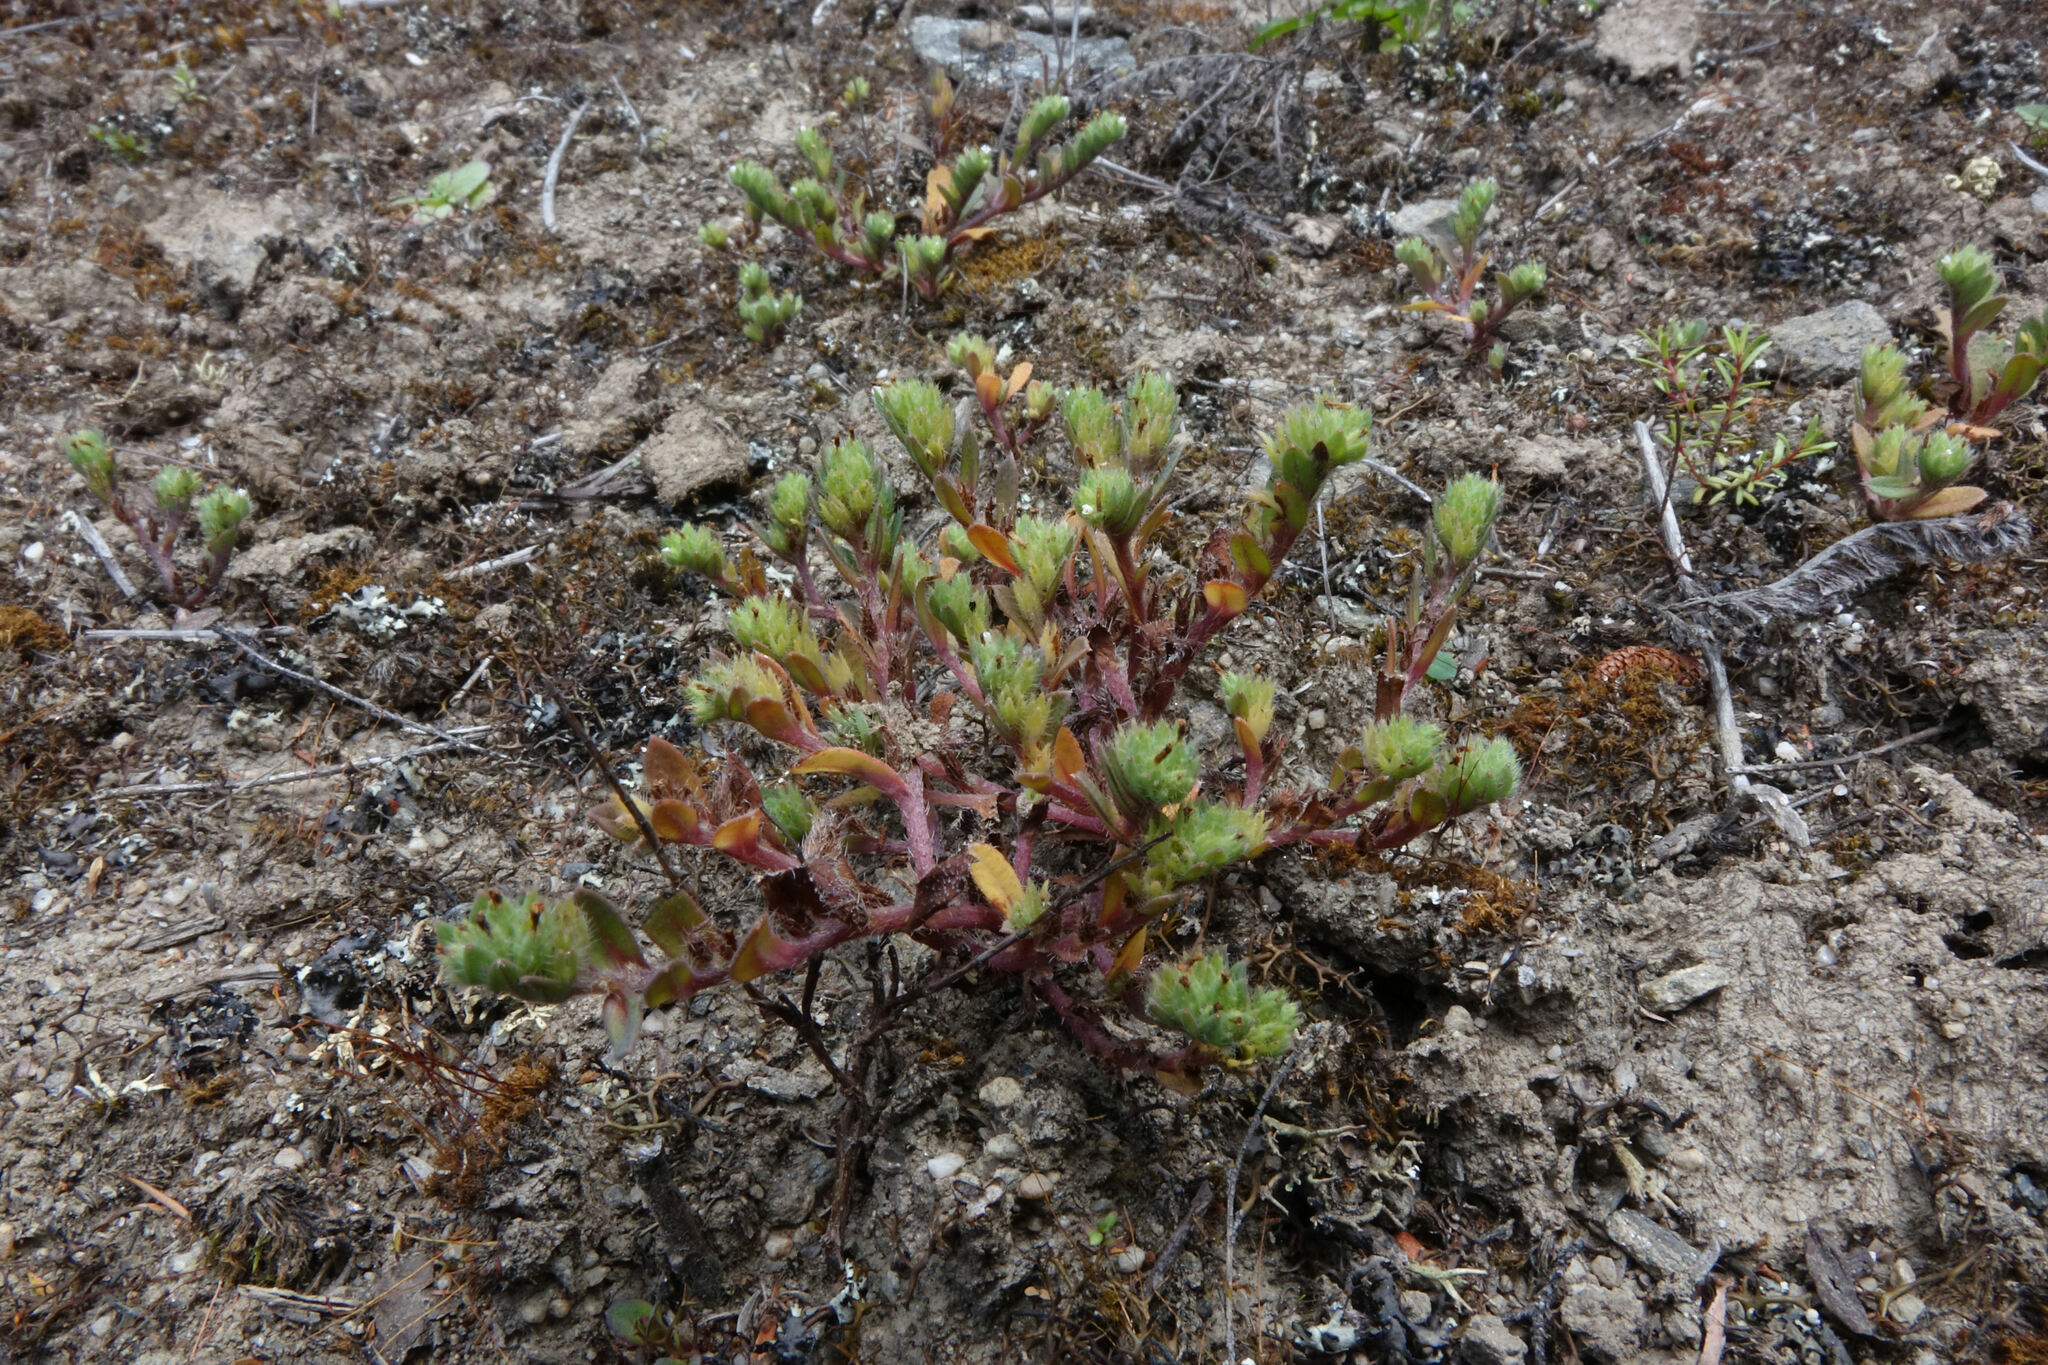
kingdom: Plantae
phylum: Tracheophyta
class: Magnoliopsida
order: Boraginales
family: Boraginaceae
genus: Myosotis
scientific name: Myosotis hikuwai
